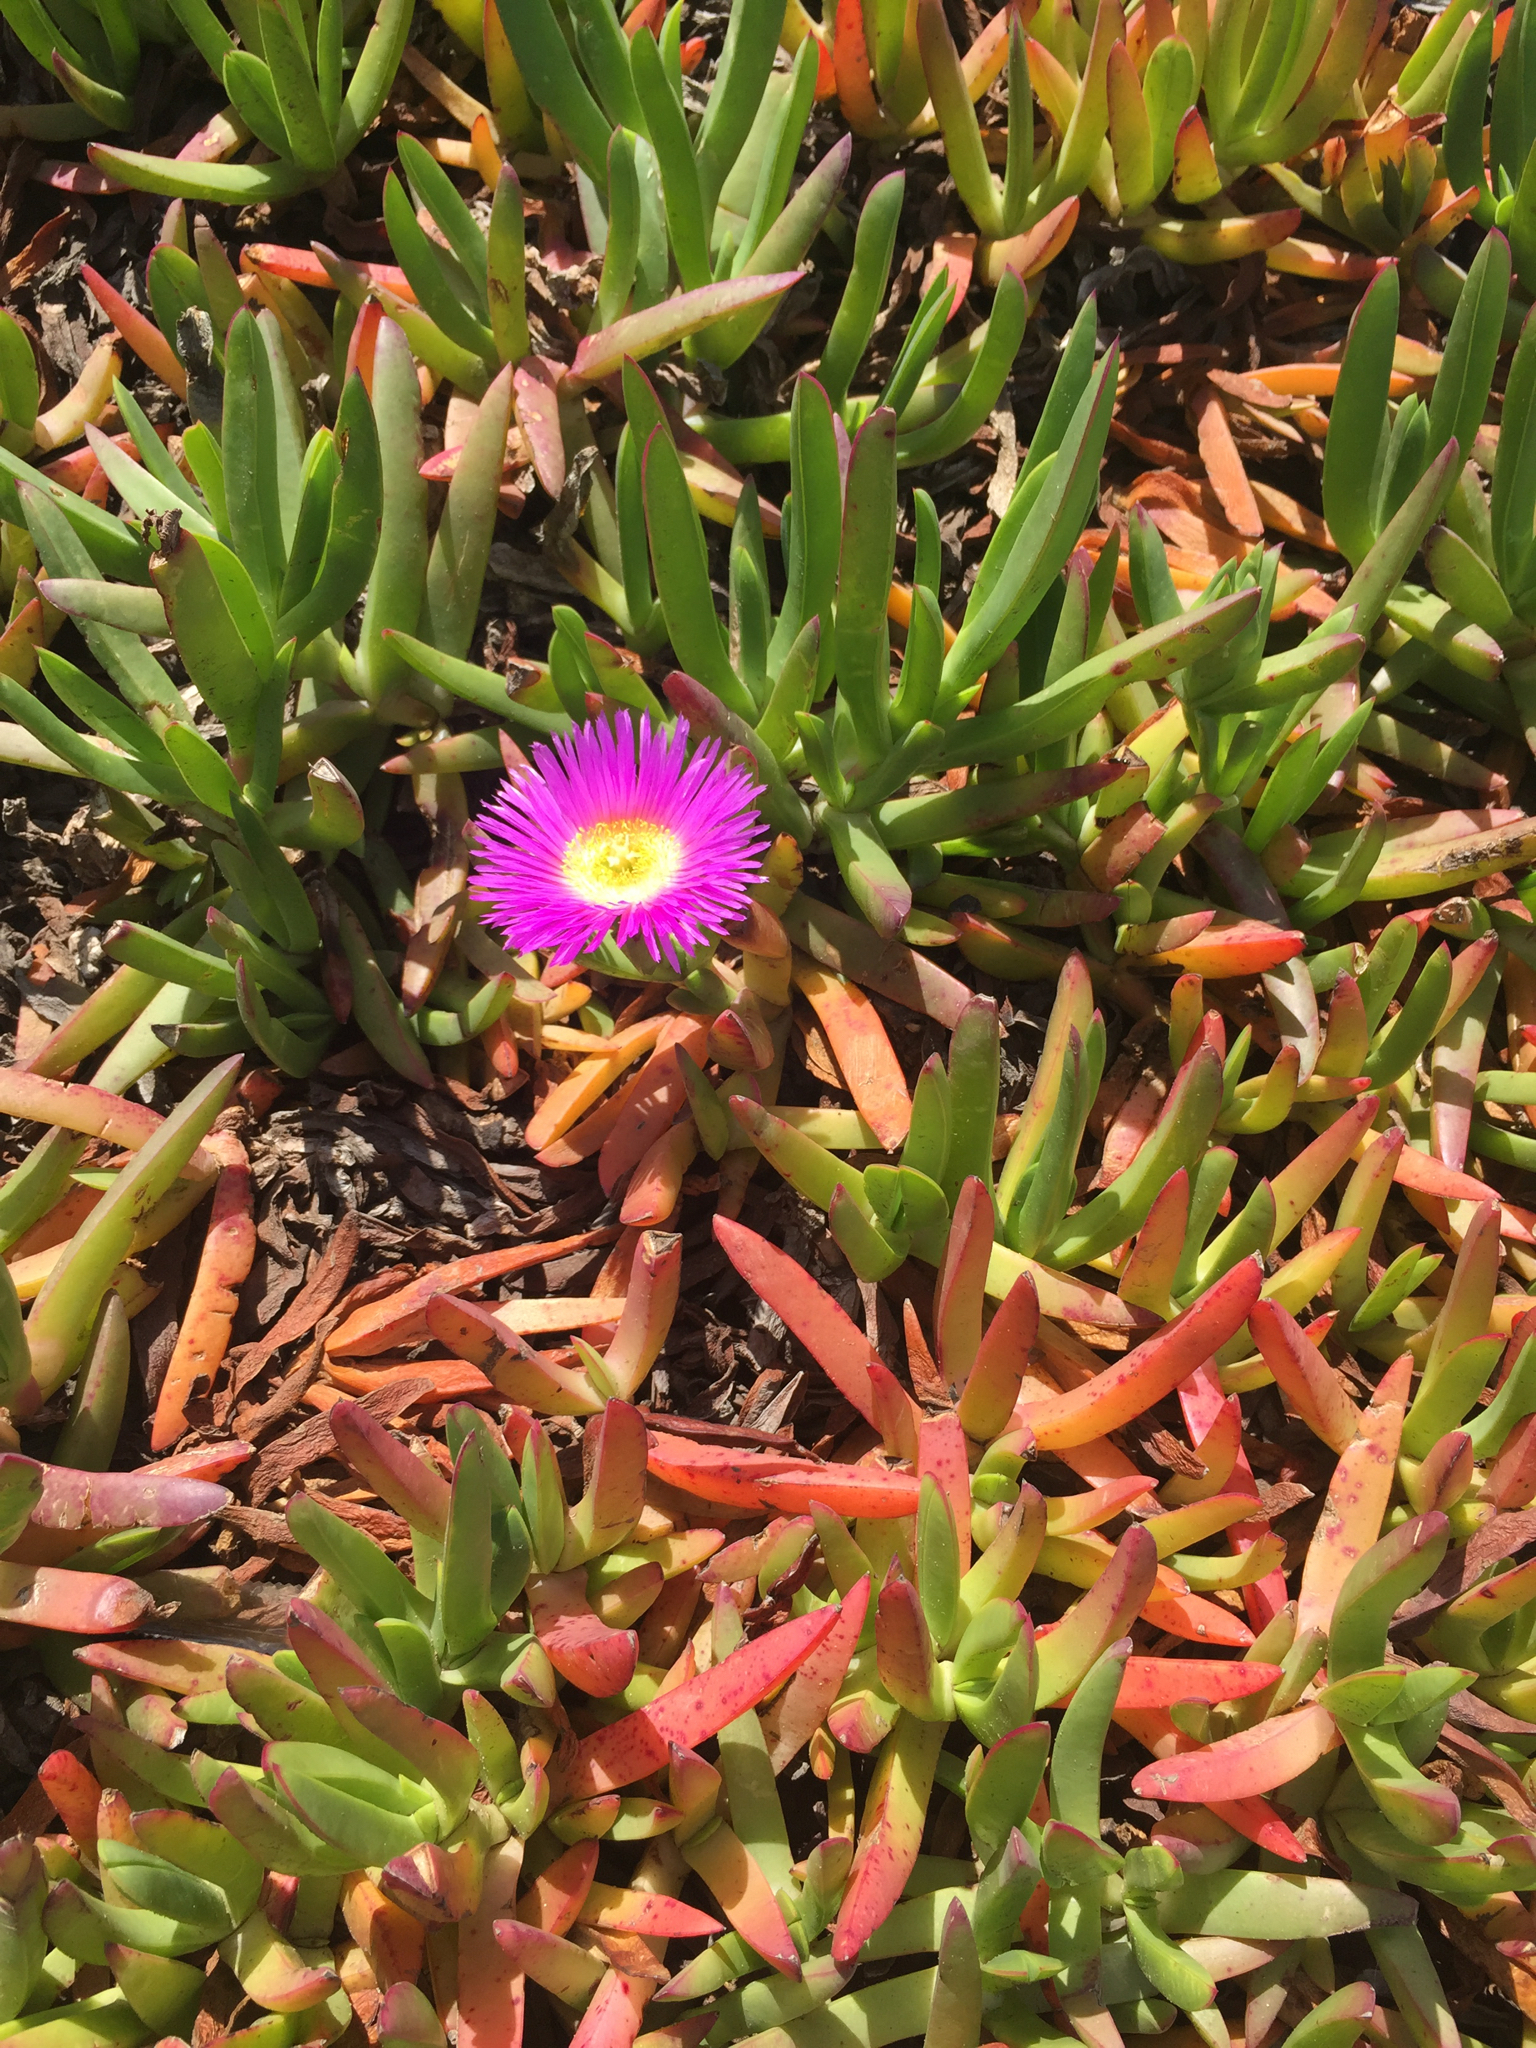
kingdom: Plantae
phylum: Tracheophyta
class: Magnoliopsida
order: Caryophyllales
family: Aizoaceae
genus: Carpobrotus
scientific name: Carpobrotus chilensis
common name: Sea fig
